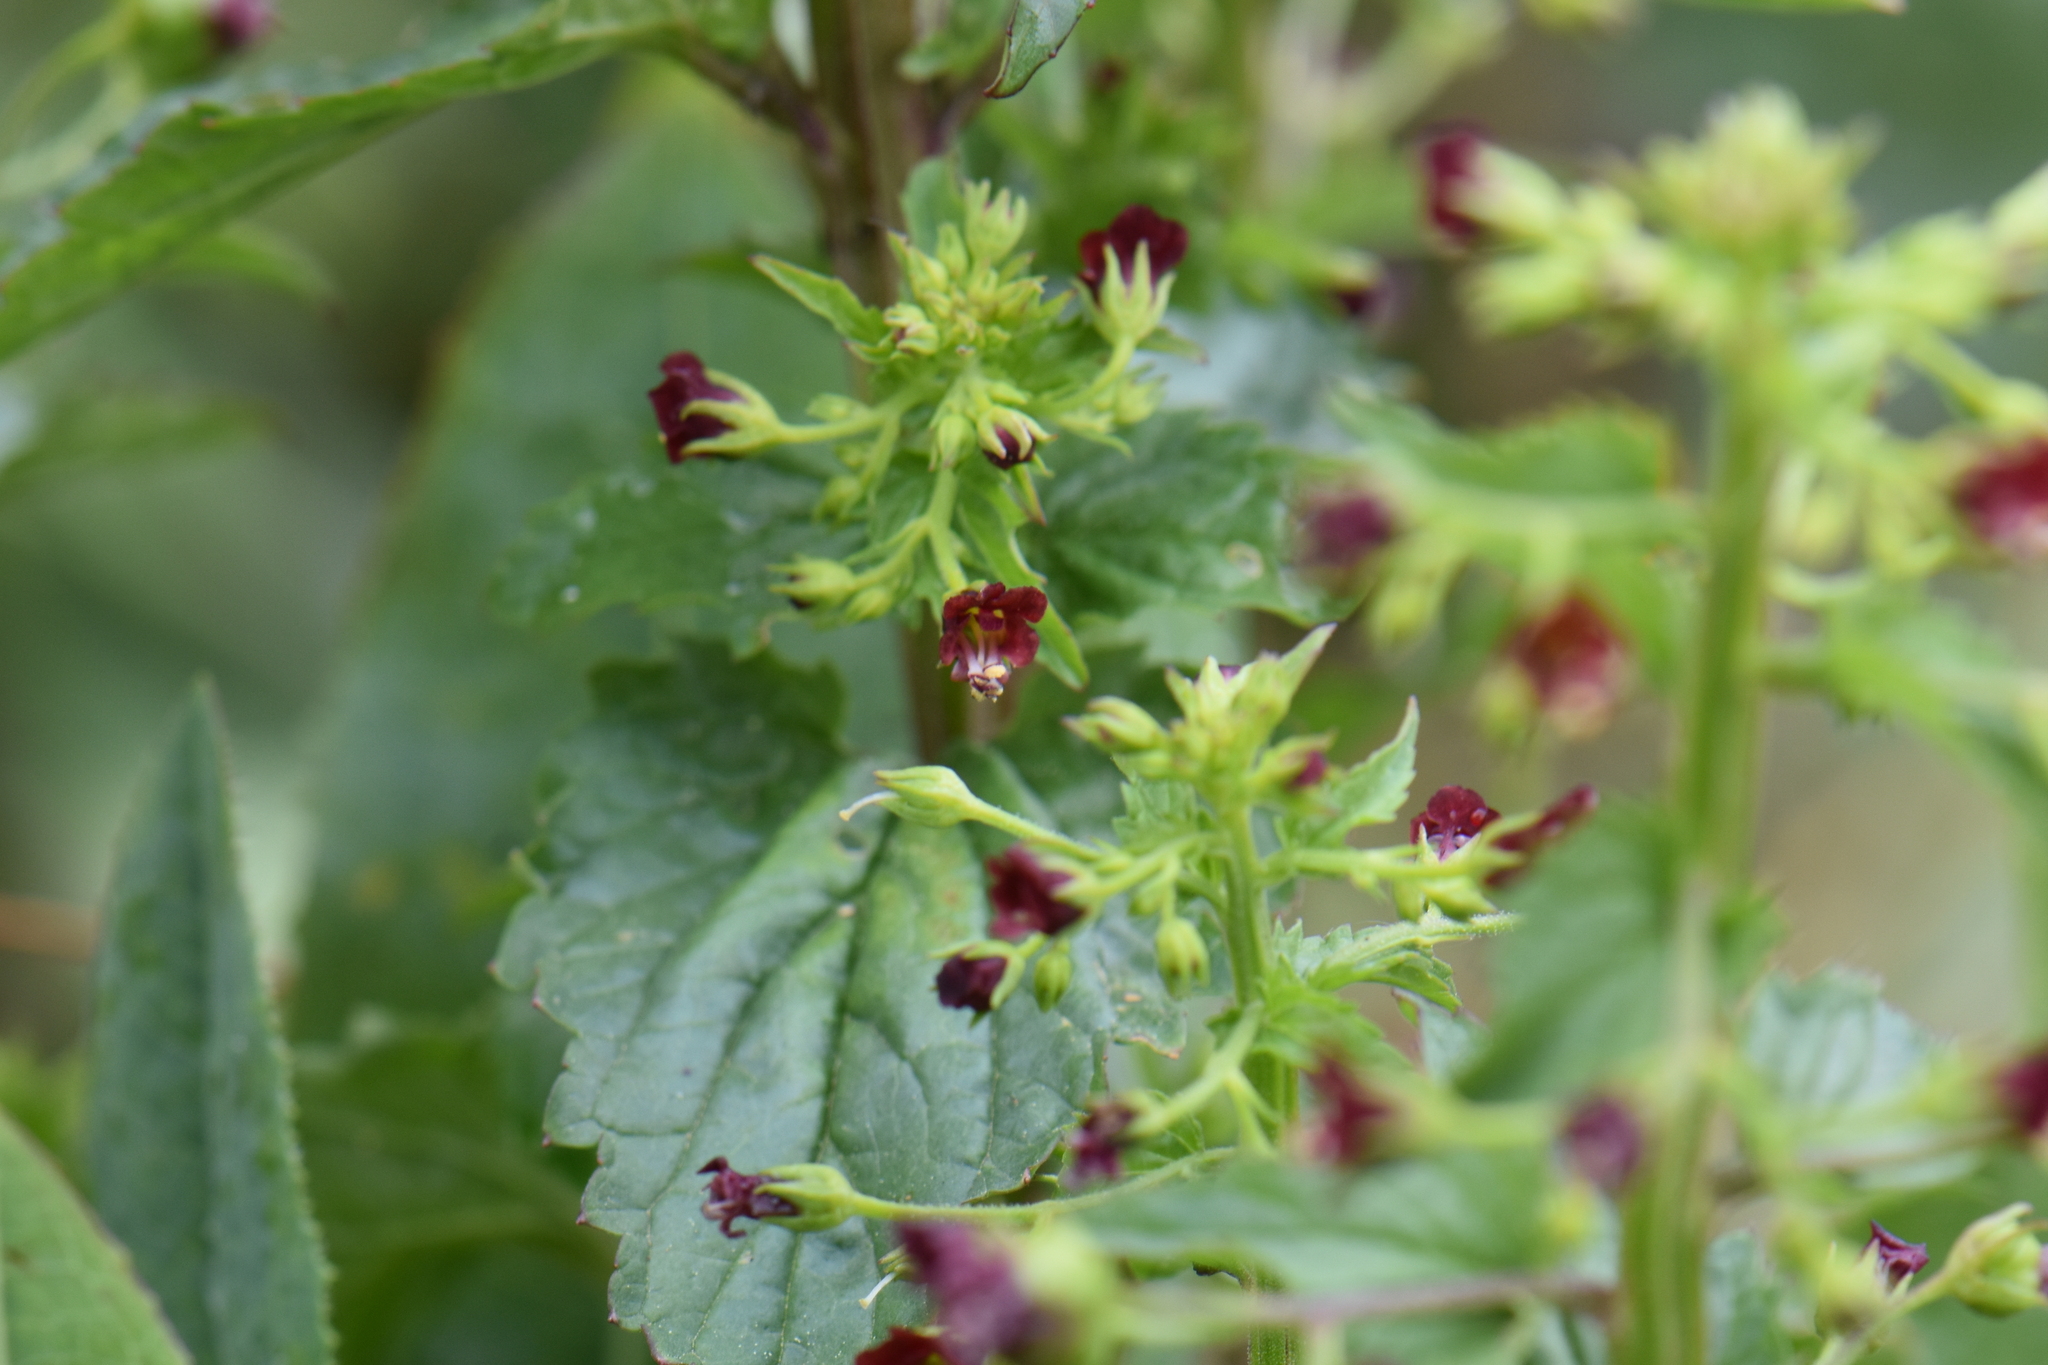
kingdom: Plantae
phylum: Tracheophyta
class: Magnoliopsida
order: Lamiales
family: Scrophulariaceae
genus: Scrophularia
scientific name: Scrophularia peregrina
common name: Mediterranean figwort
